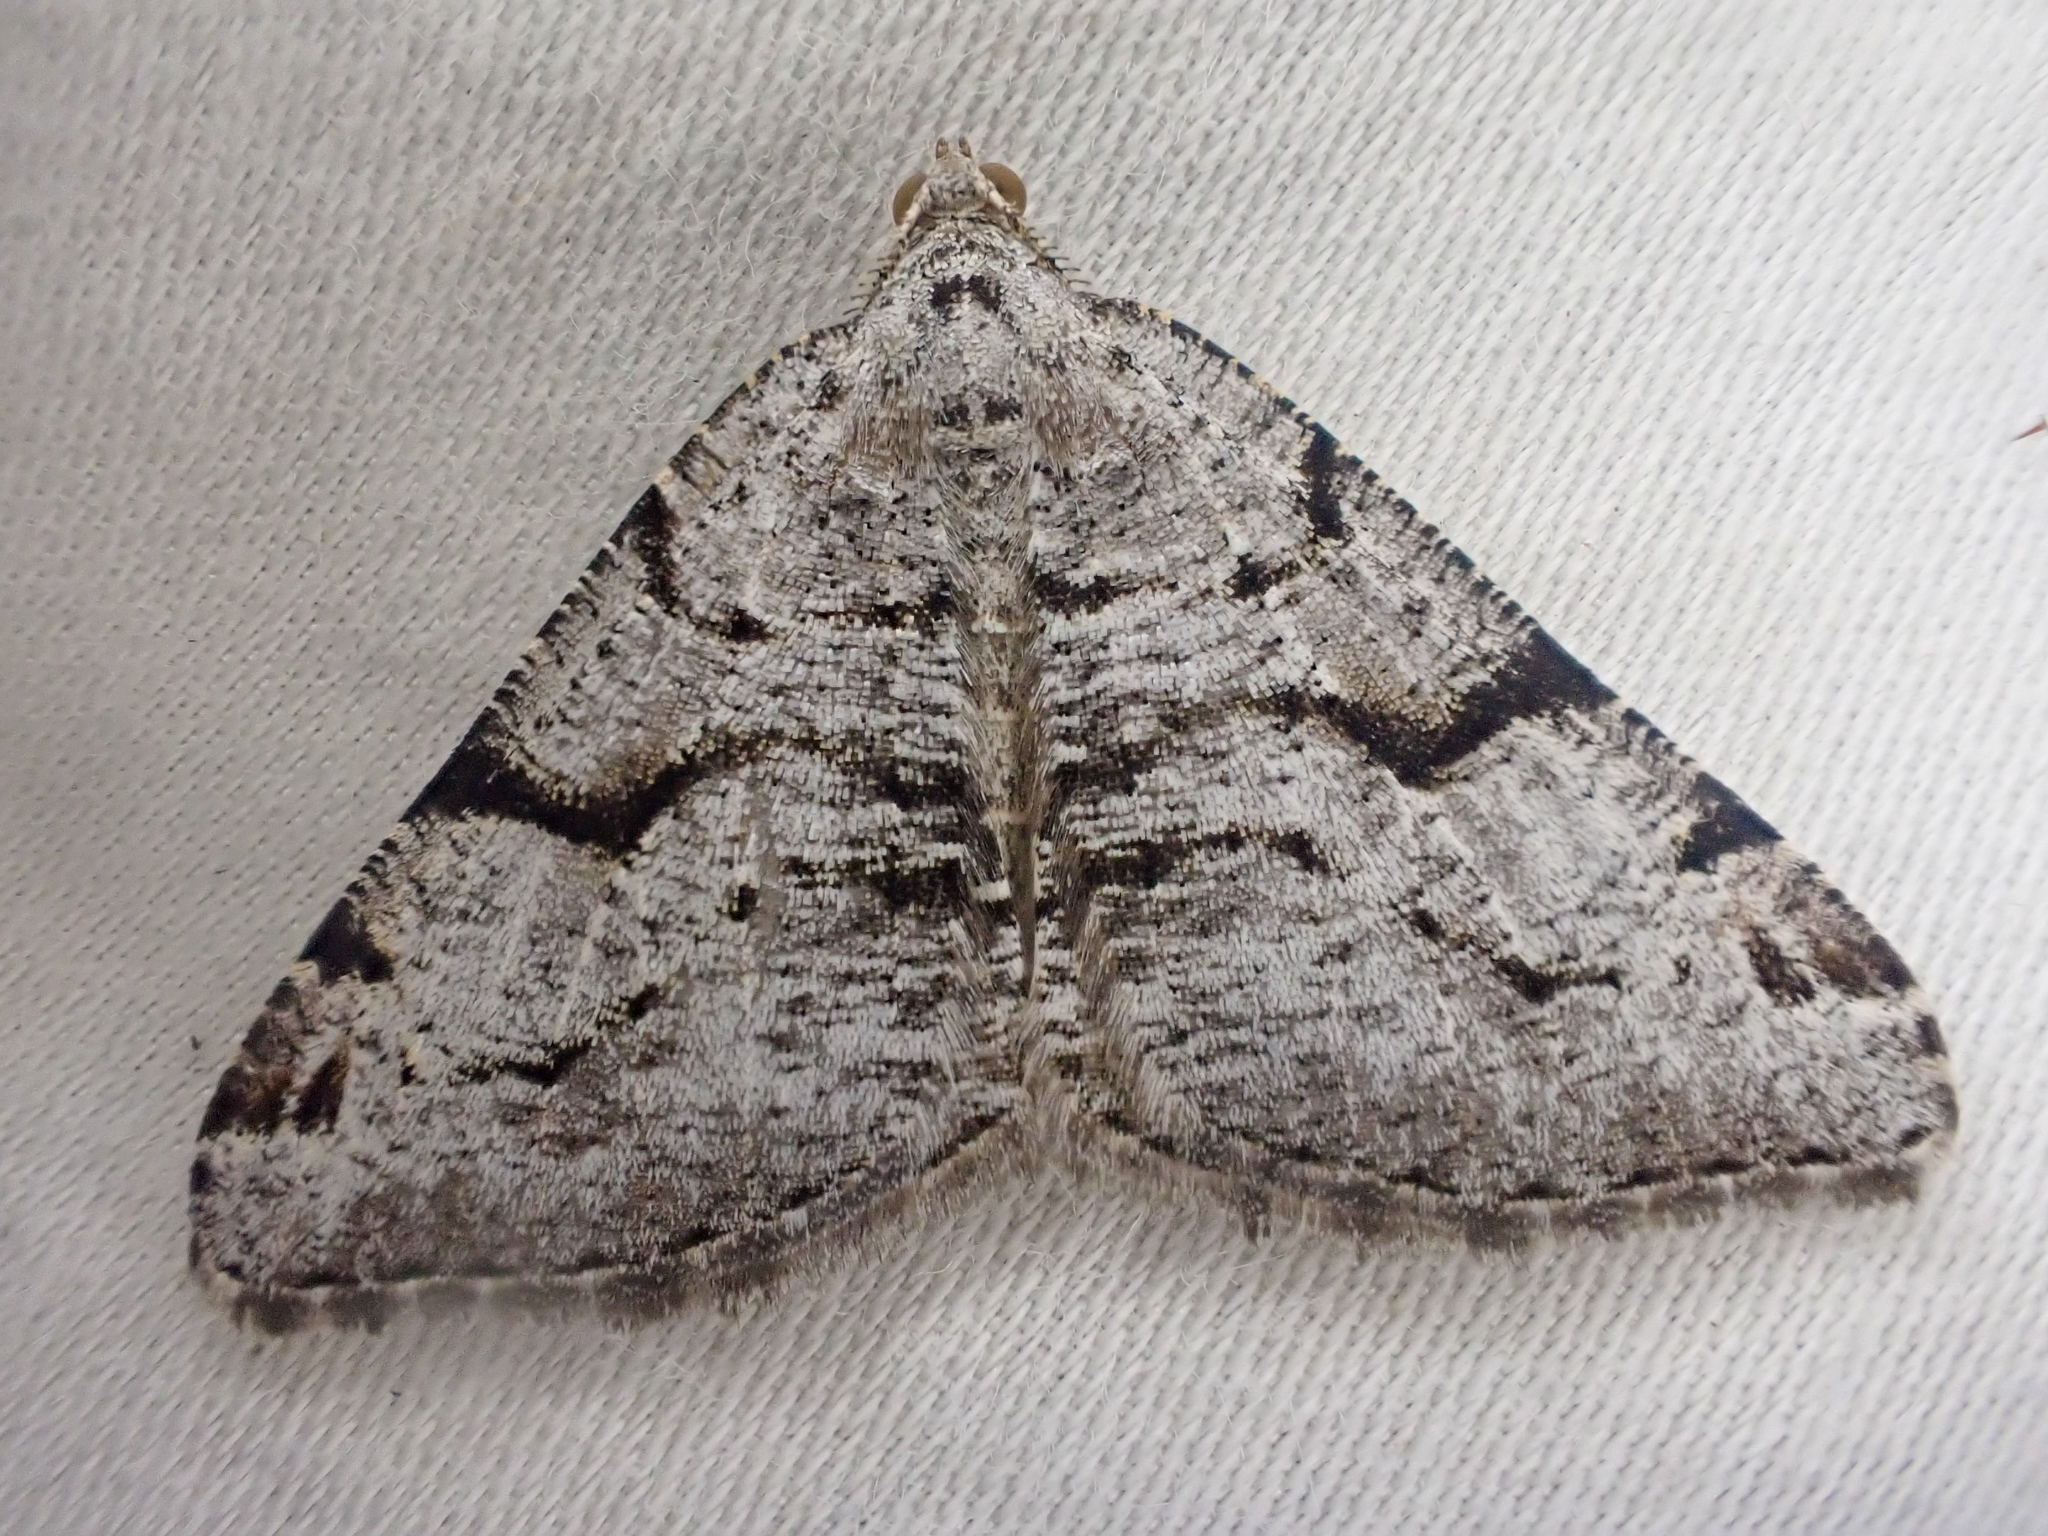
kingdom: Animalia
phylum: Arthropoda
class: Insecta
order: Lepidoptera
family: Geometridae
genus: Macaria
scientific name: Macaria bitactata
